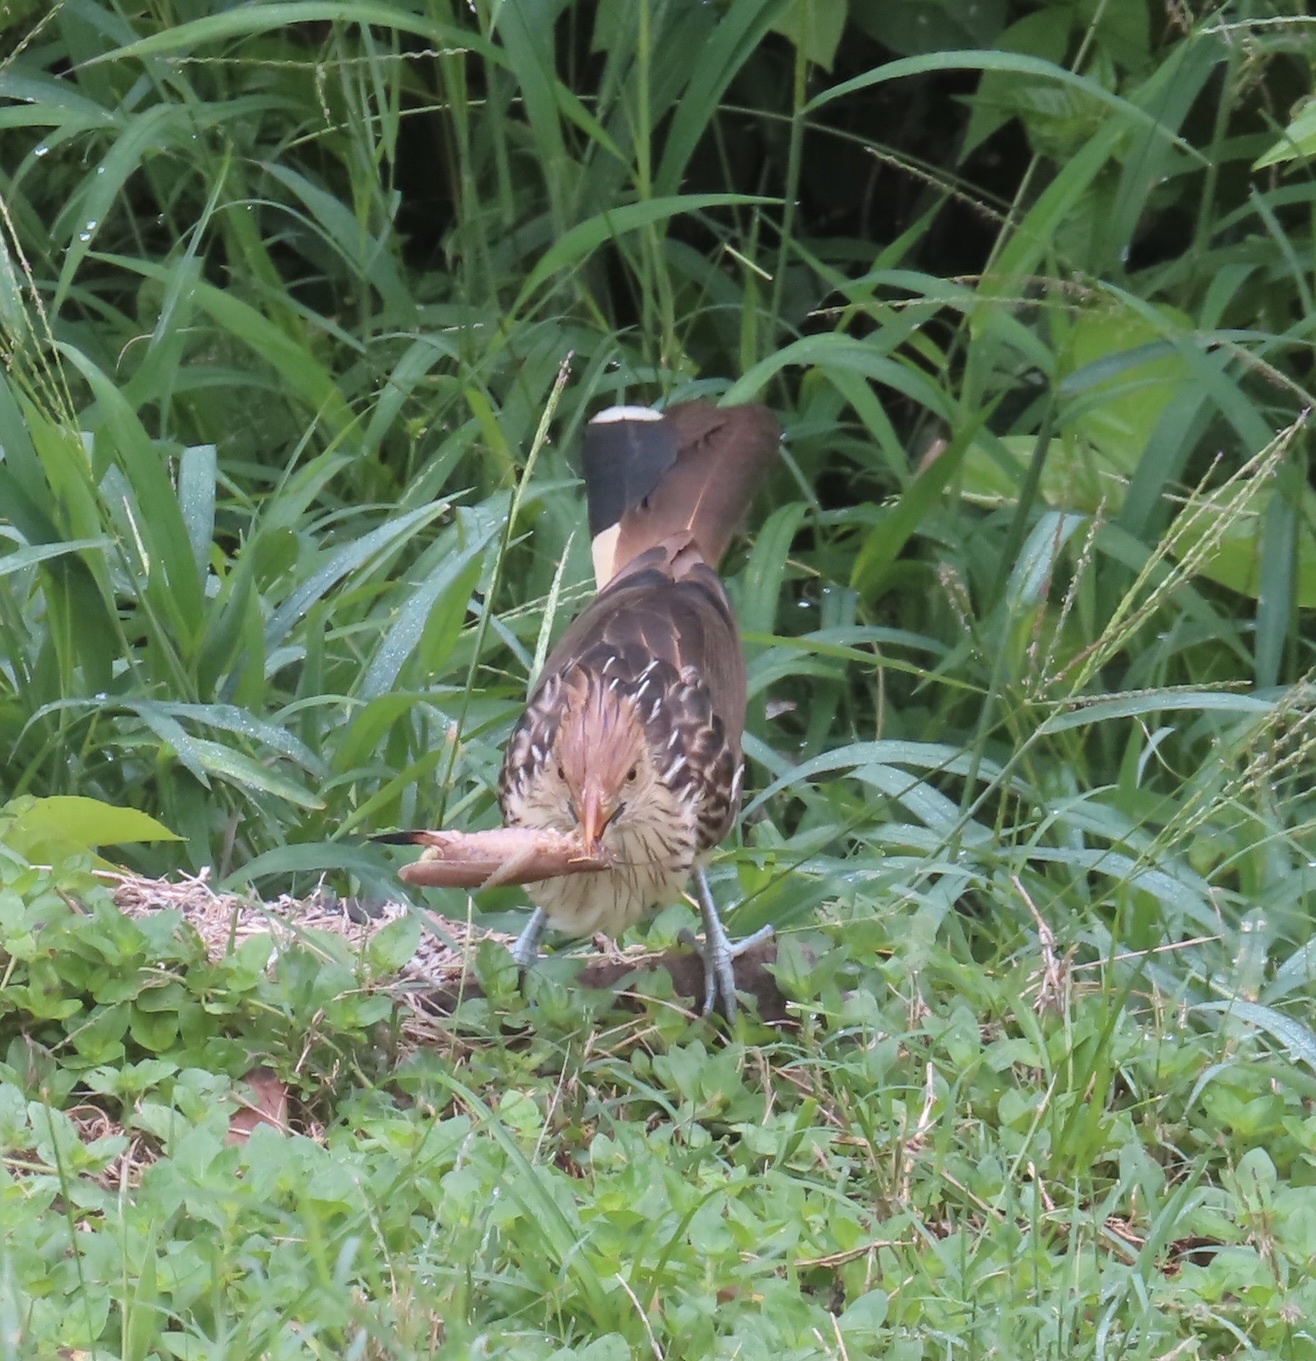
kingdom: Animalia
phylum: Chordata
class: Aves
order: Cuculiformes
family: Cuculidae
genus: Guira
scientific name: Guira guira
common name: Guira cuckoo
